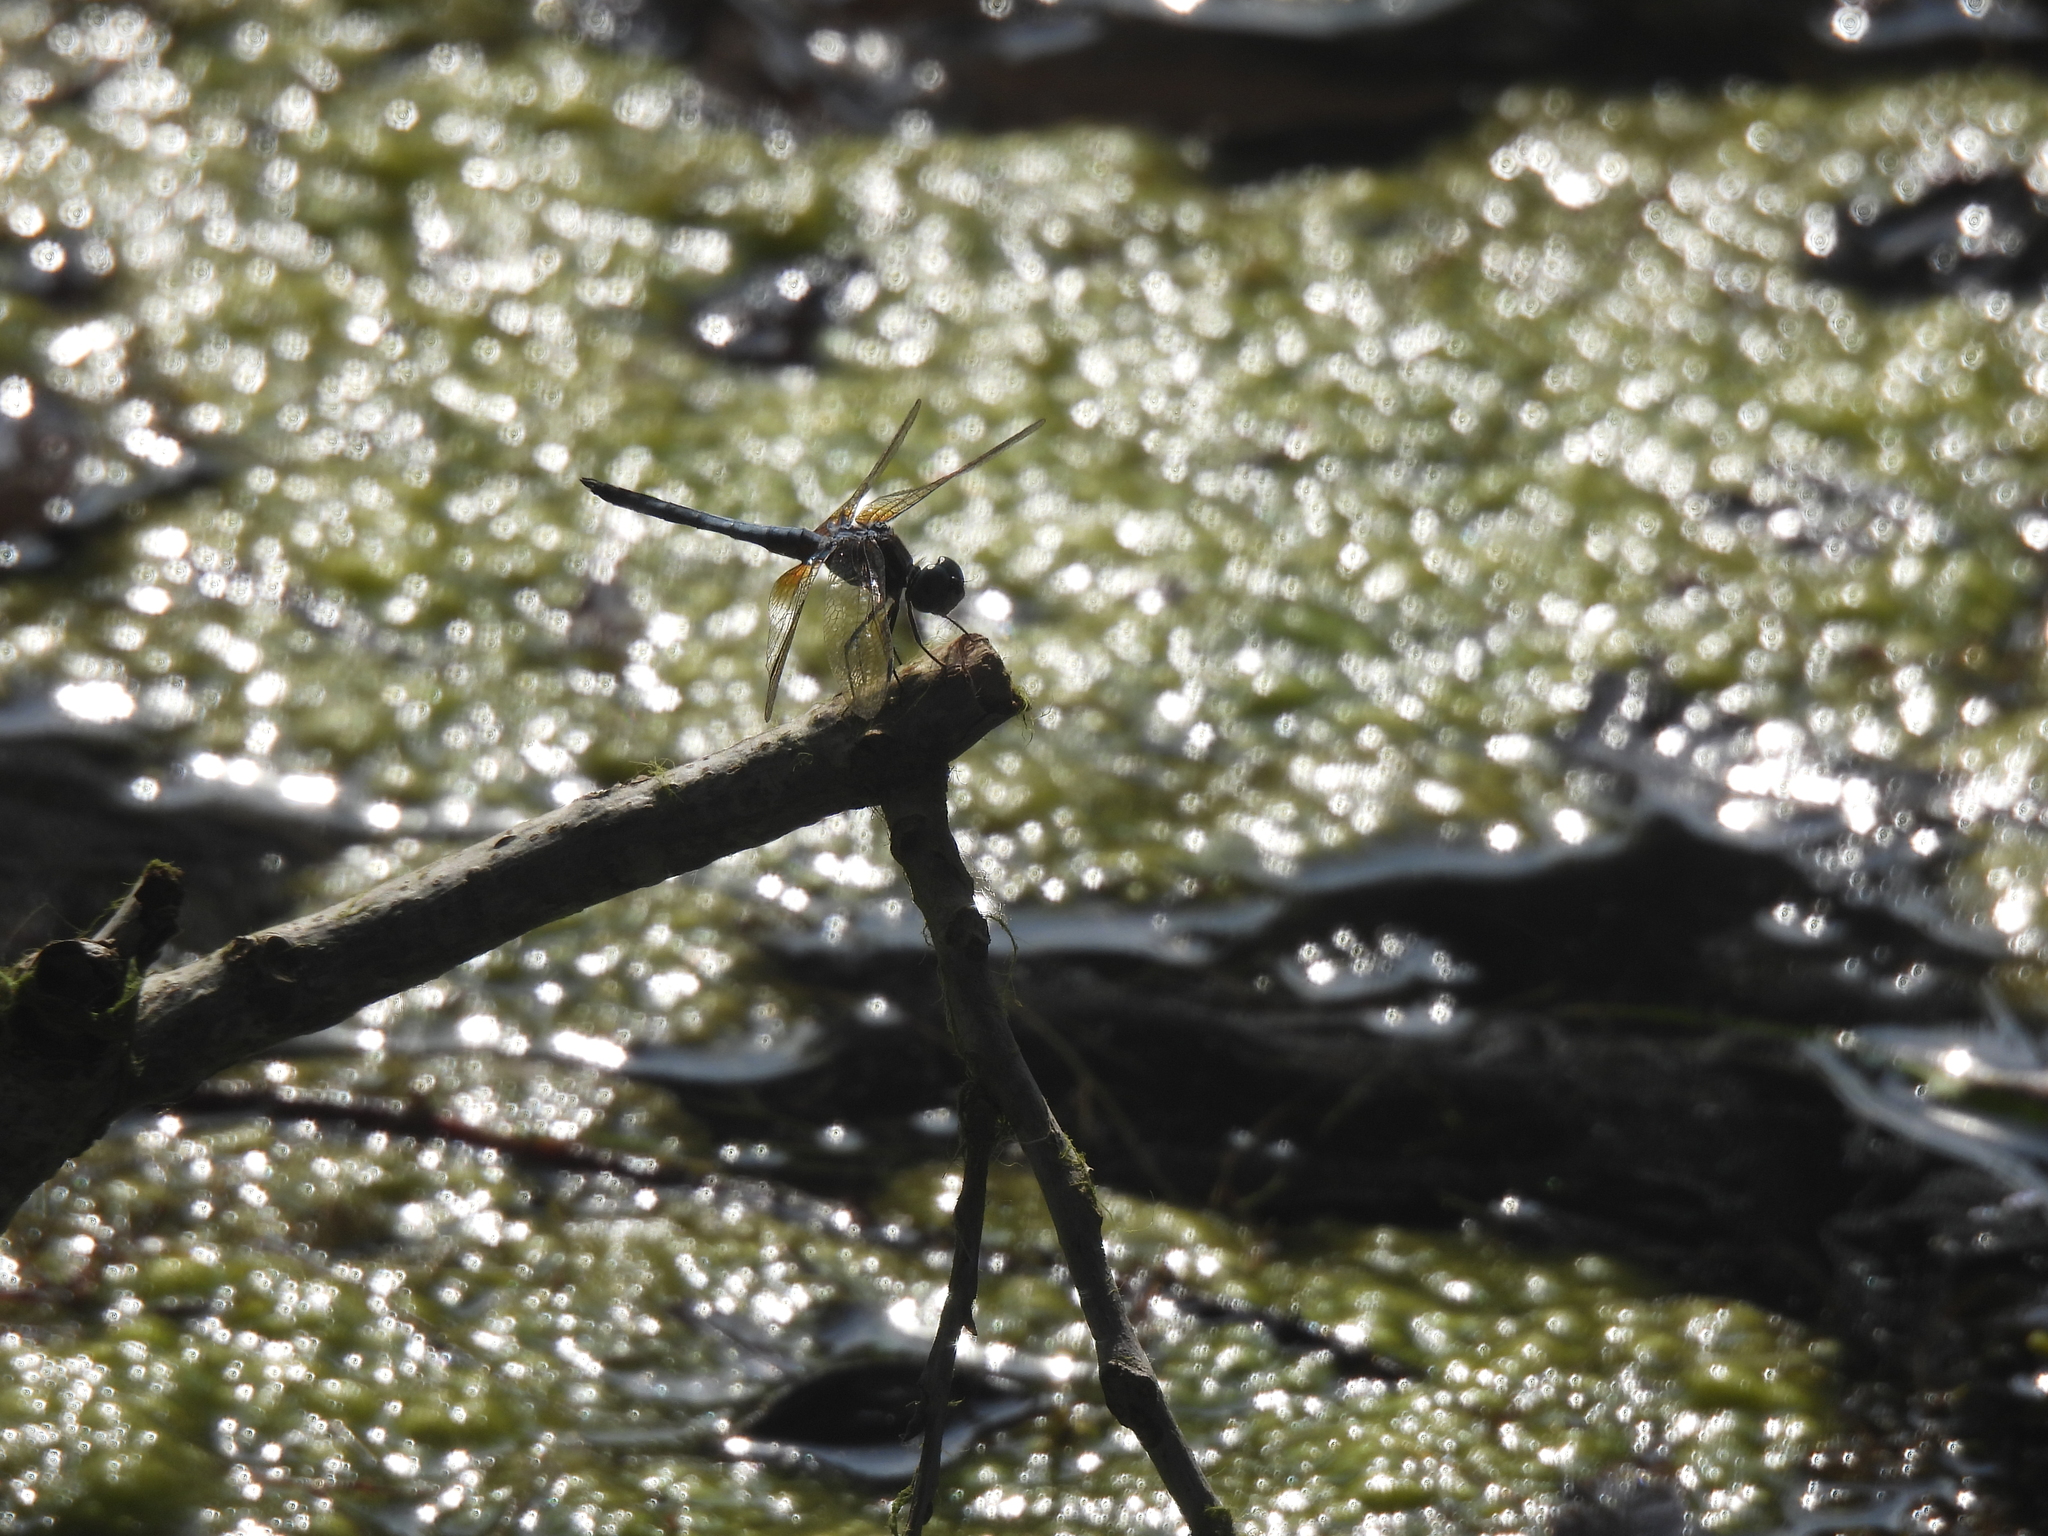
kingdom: Animalia
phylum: Arthropoda
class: Insecta
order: Odonata
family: Libellulidae
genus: Pachydiplax
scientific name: Pachydiplax longipennis
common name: Blue dasher
